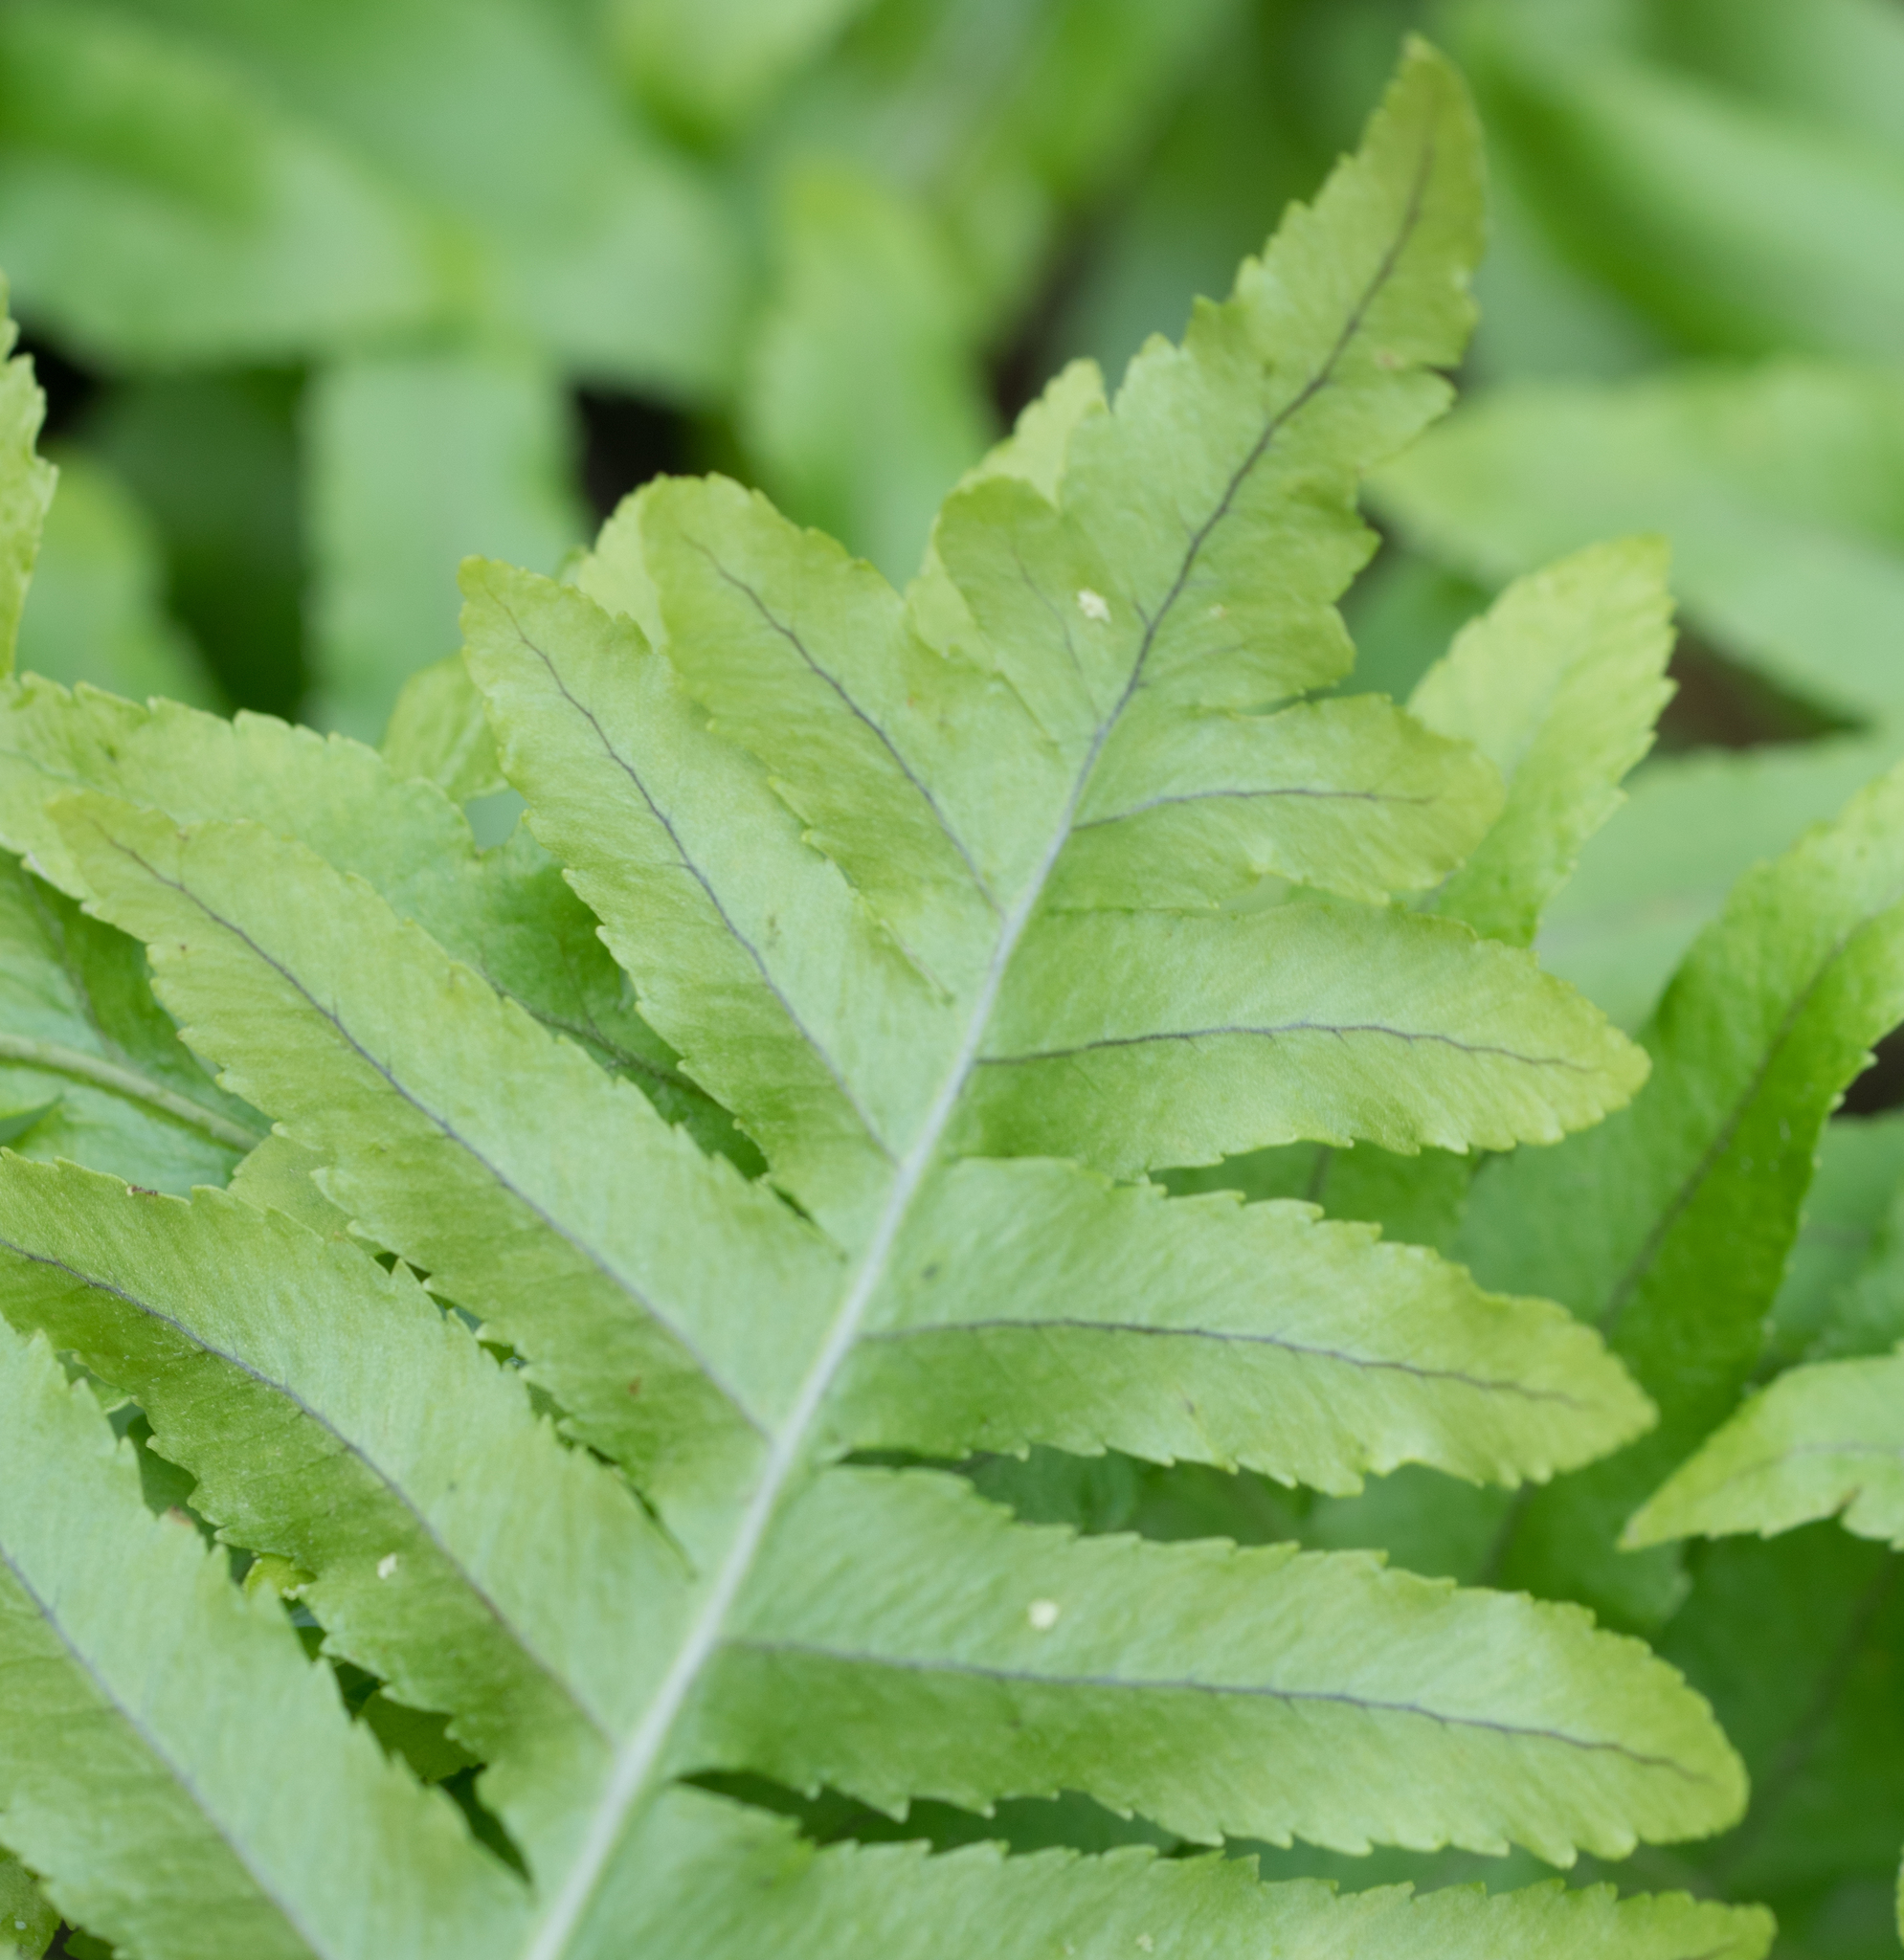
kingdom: Plantae
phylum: Tracheophyta
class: Polypodiopsida
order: Polypodiales
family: Polypodiaceae
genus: Polypodium
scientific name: Polypodium californicum
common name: California polypody
